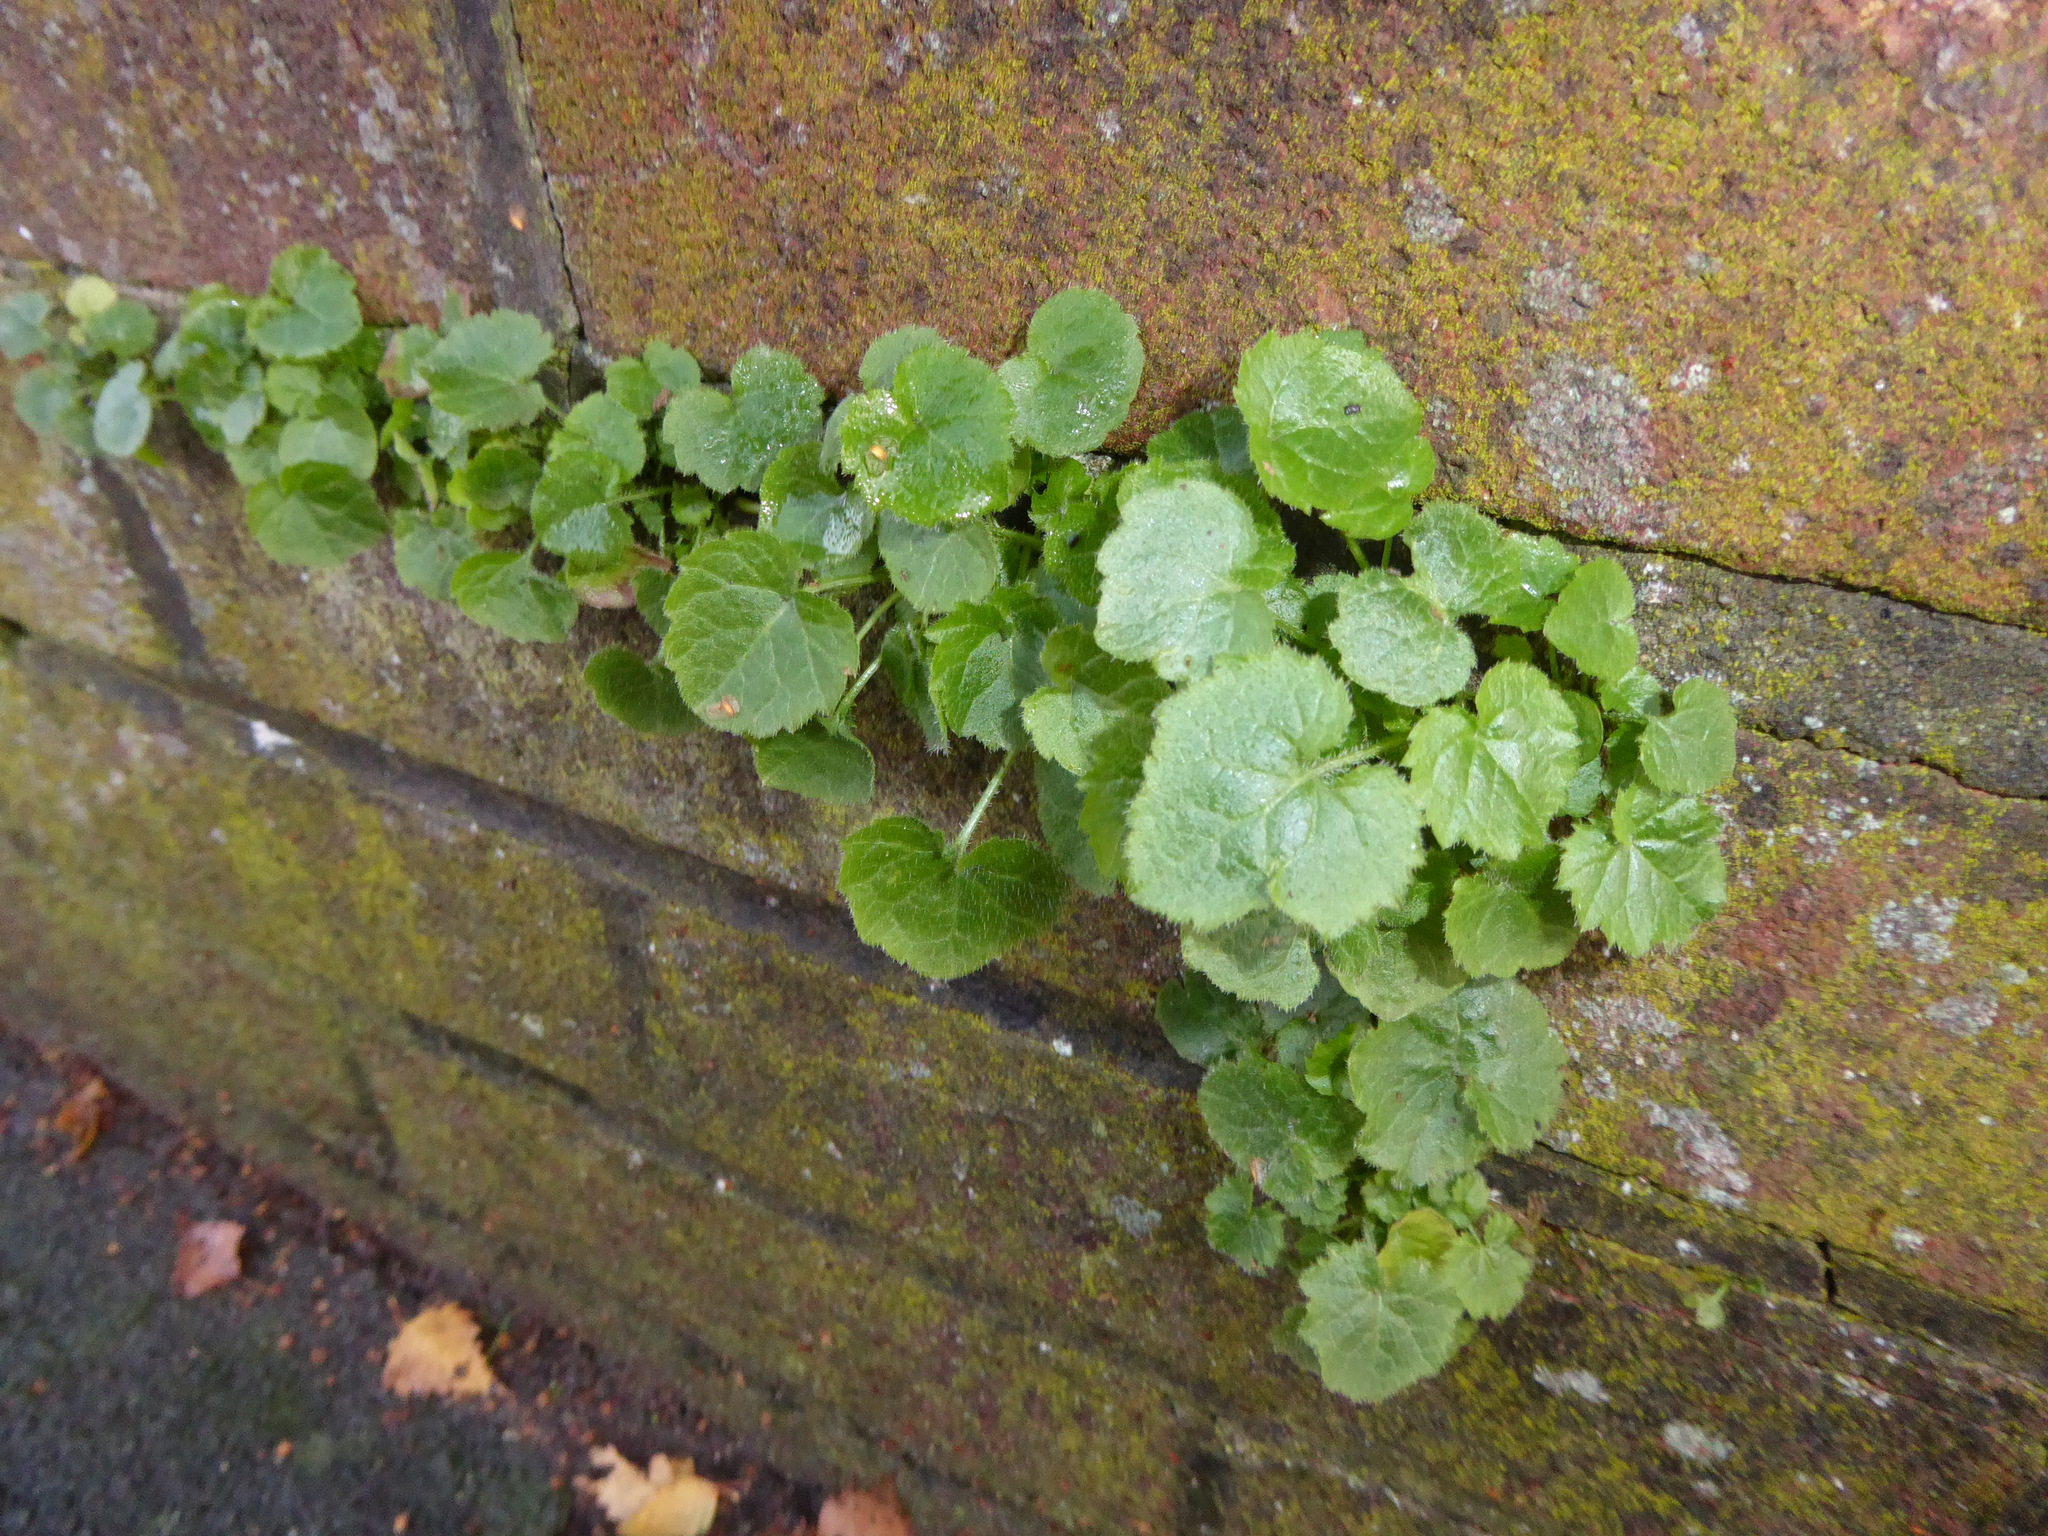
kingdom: Plantae
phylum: Tracheophyta
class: Magnoliopsida
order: Asterales
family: Campanulaceae
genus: Campanula
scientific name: Campanula poscharskyana
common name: Trailing bellflower
